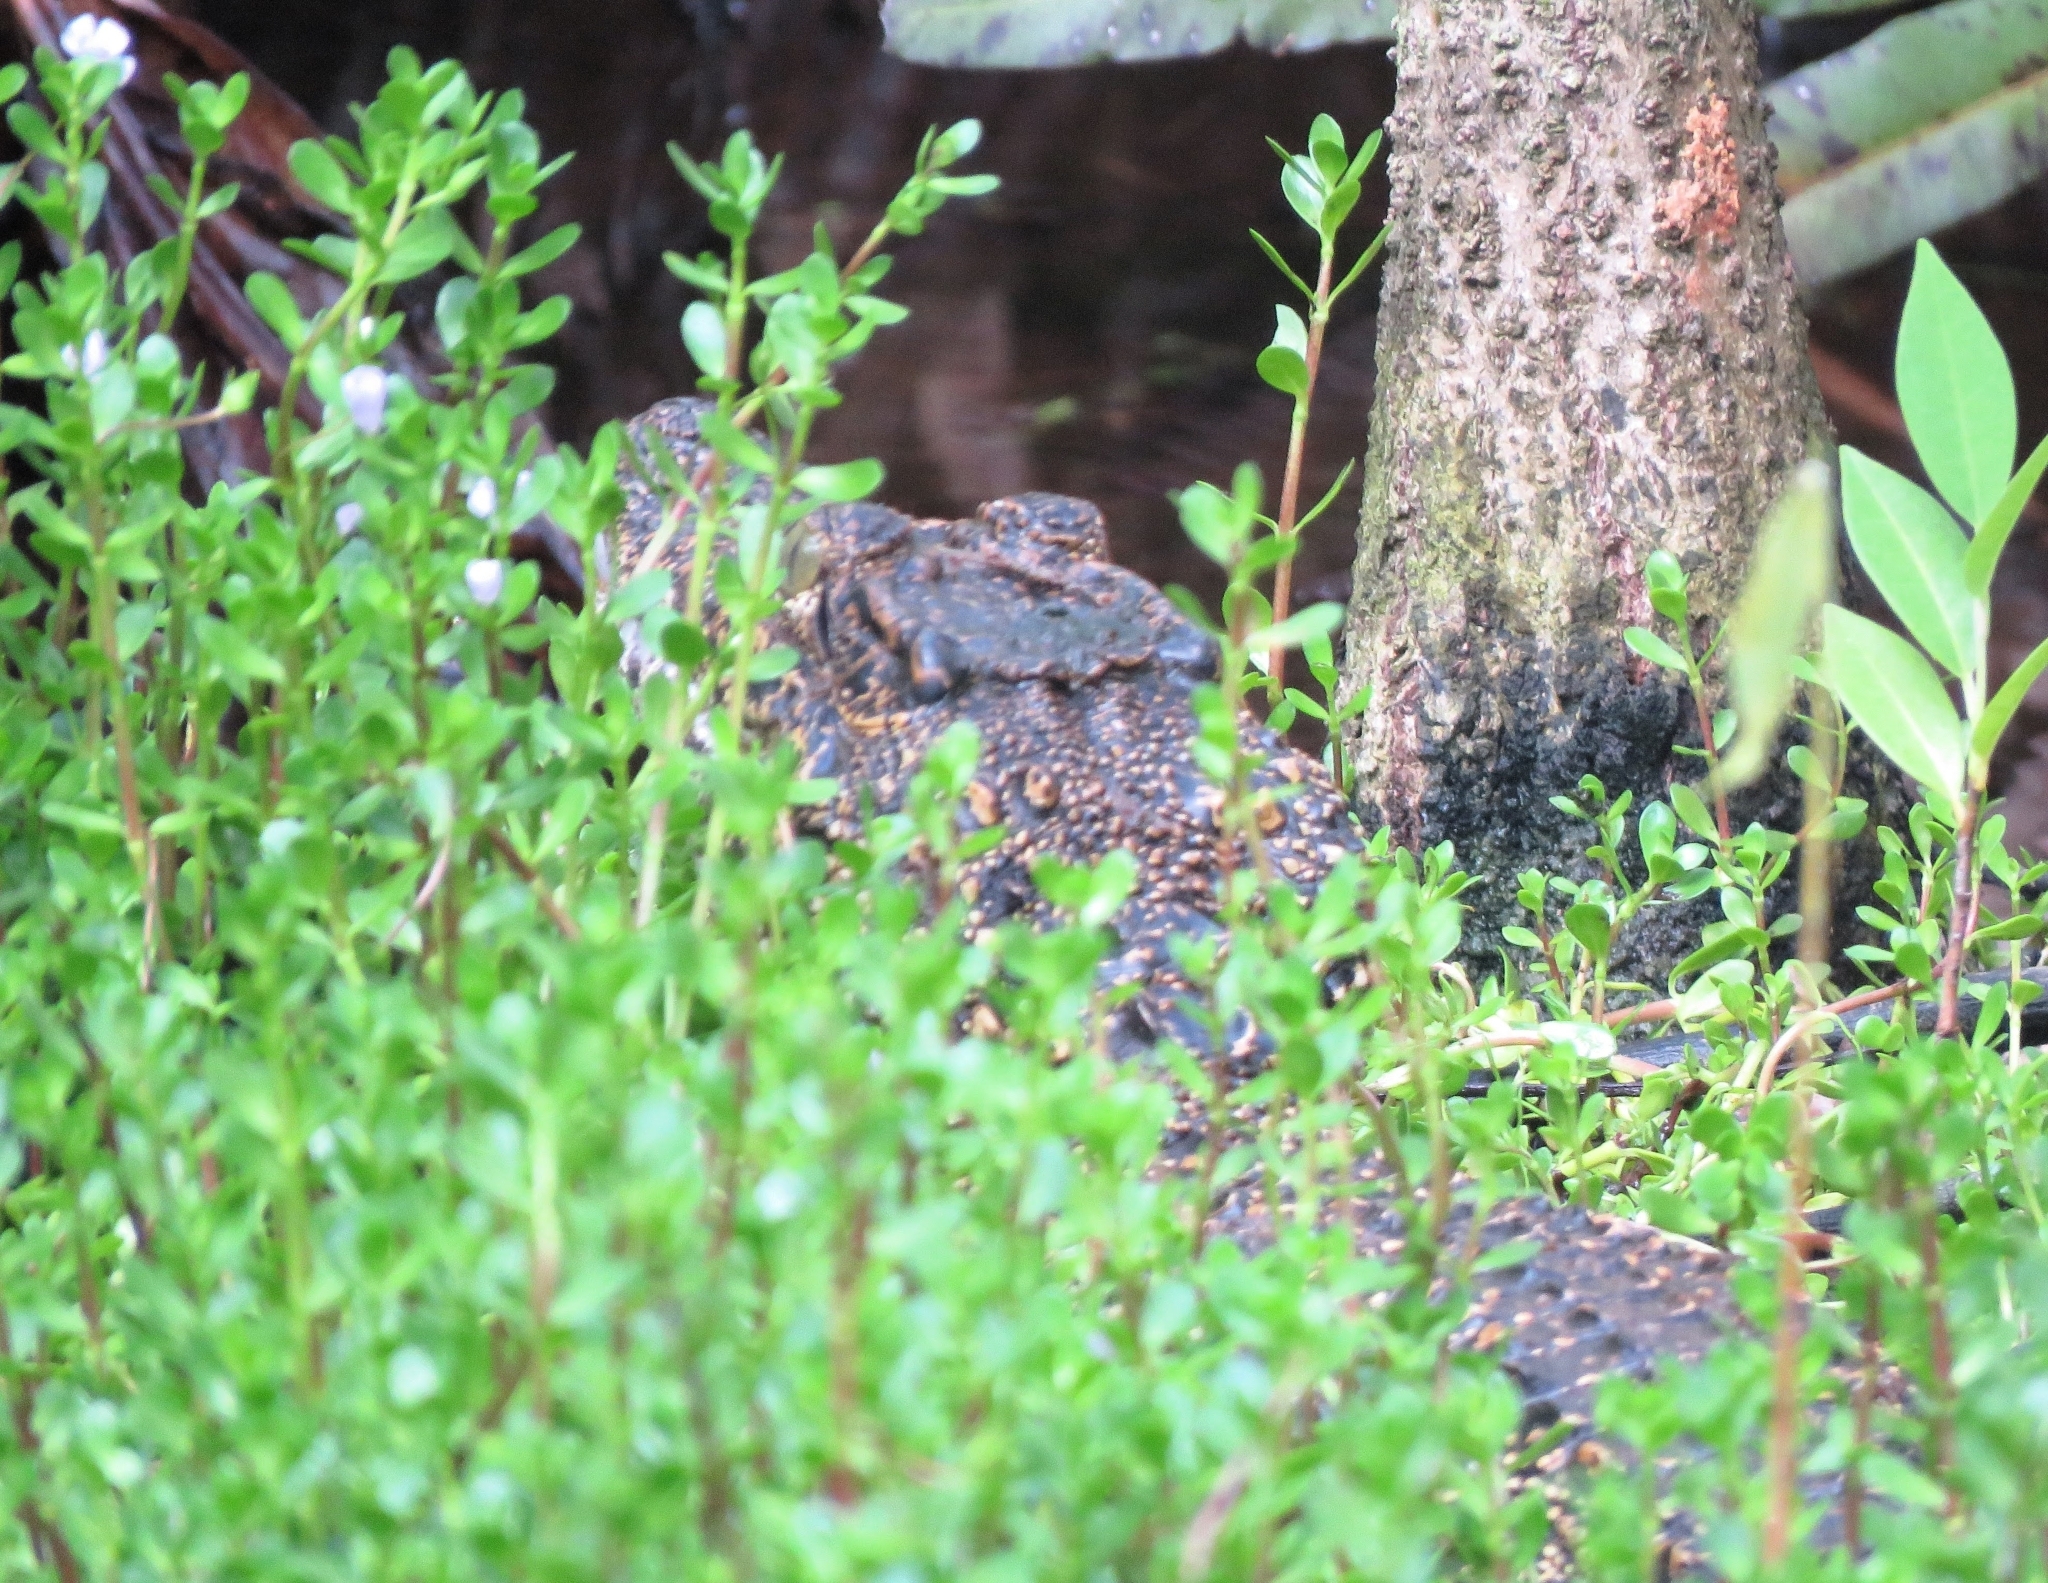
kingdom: Animalia
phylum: Chordata
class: Crocodylia
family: Crocodylidae
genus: Crocodylus
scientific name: Crocodylus rhombifer
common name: Cuban crocodile
